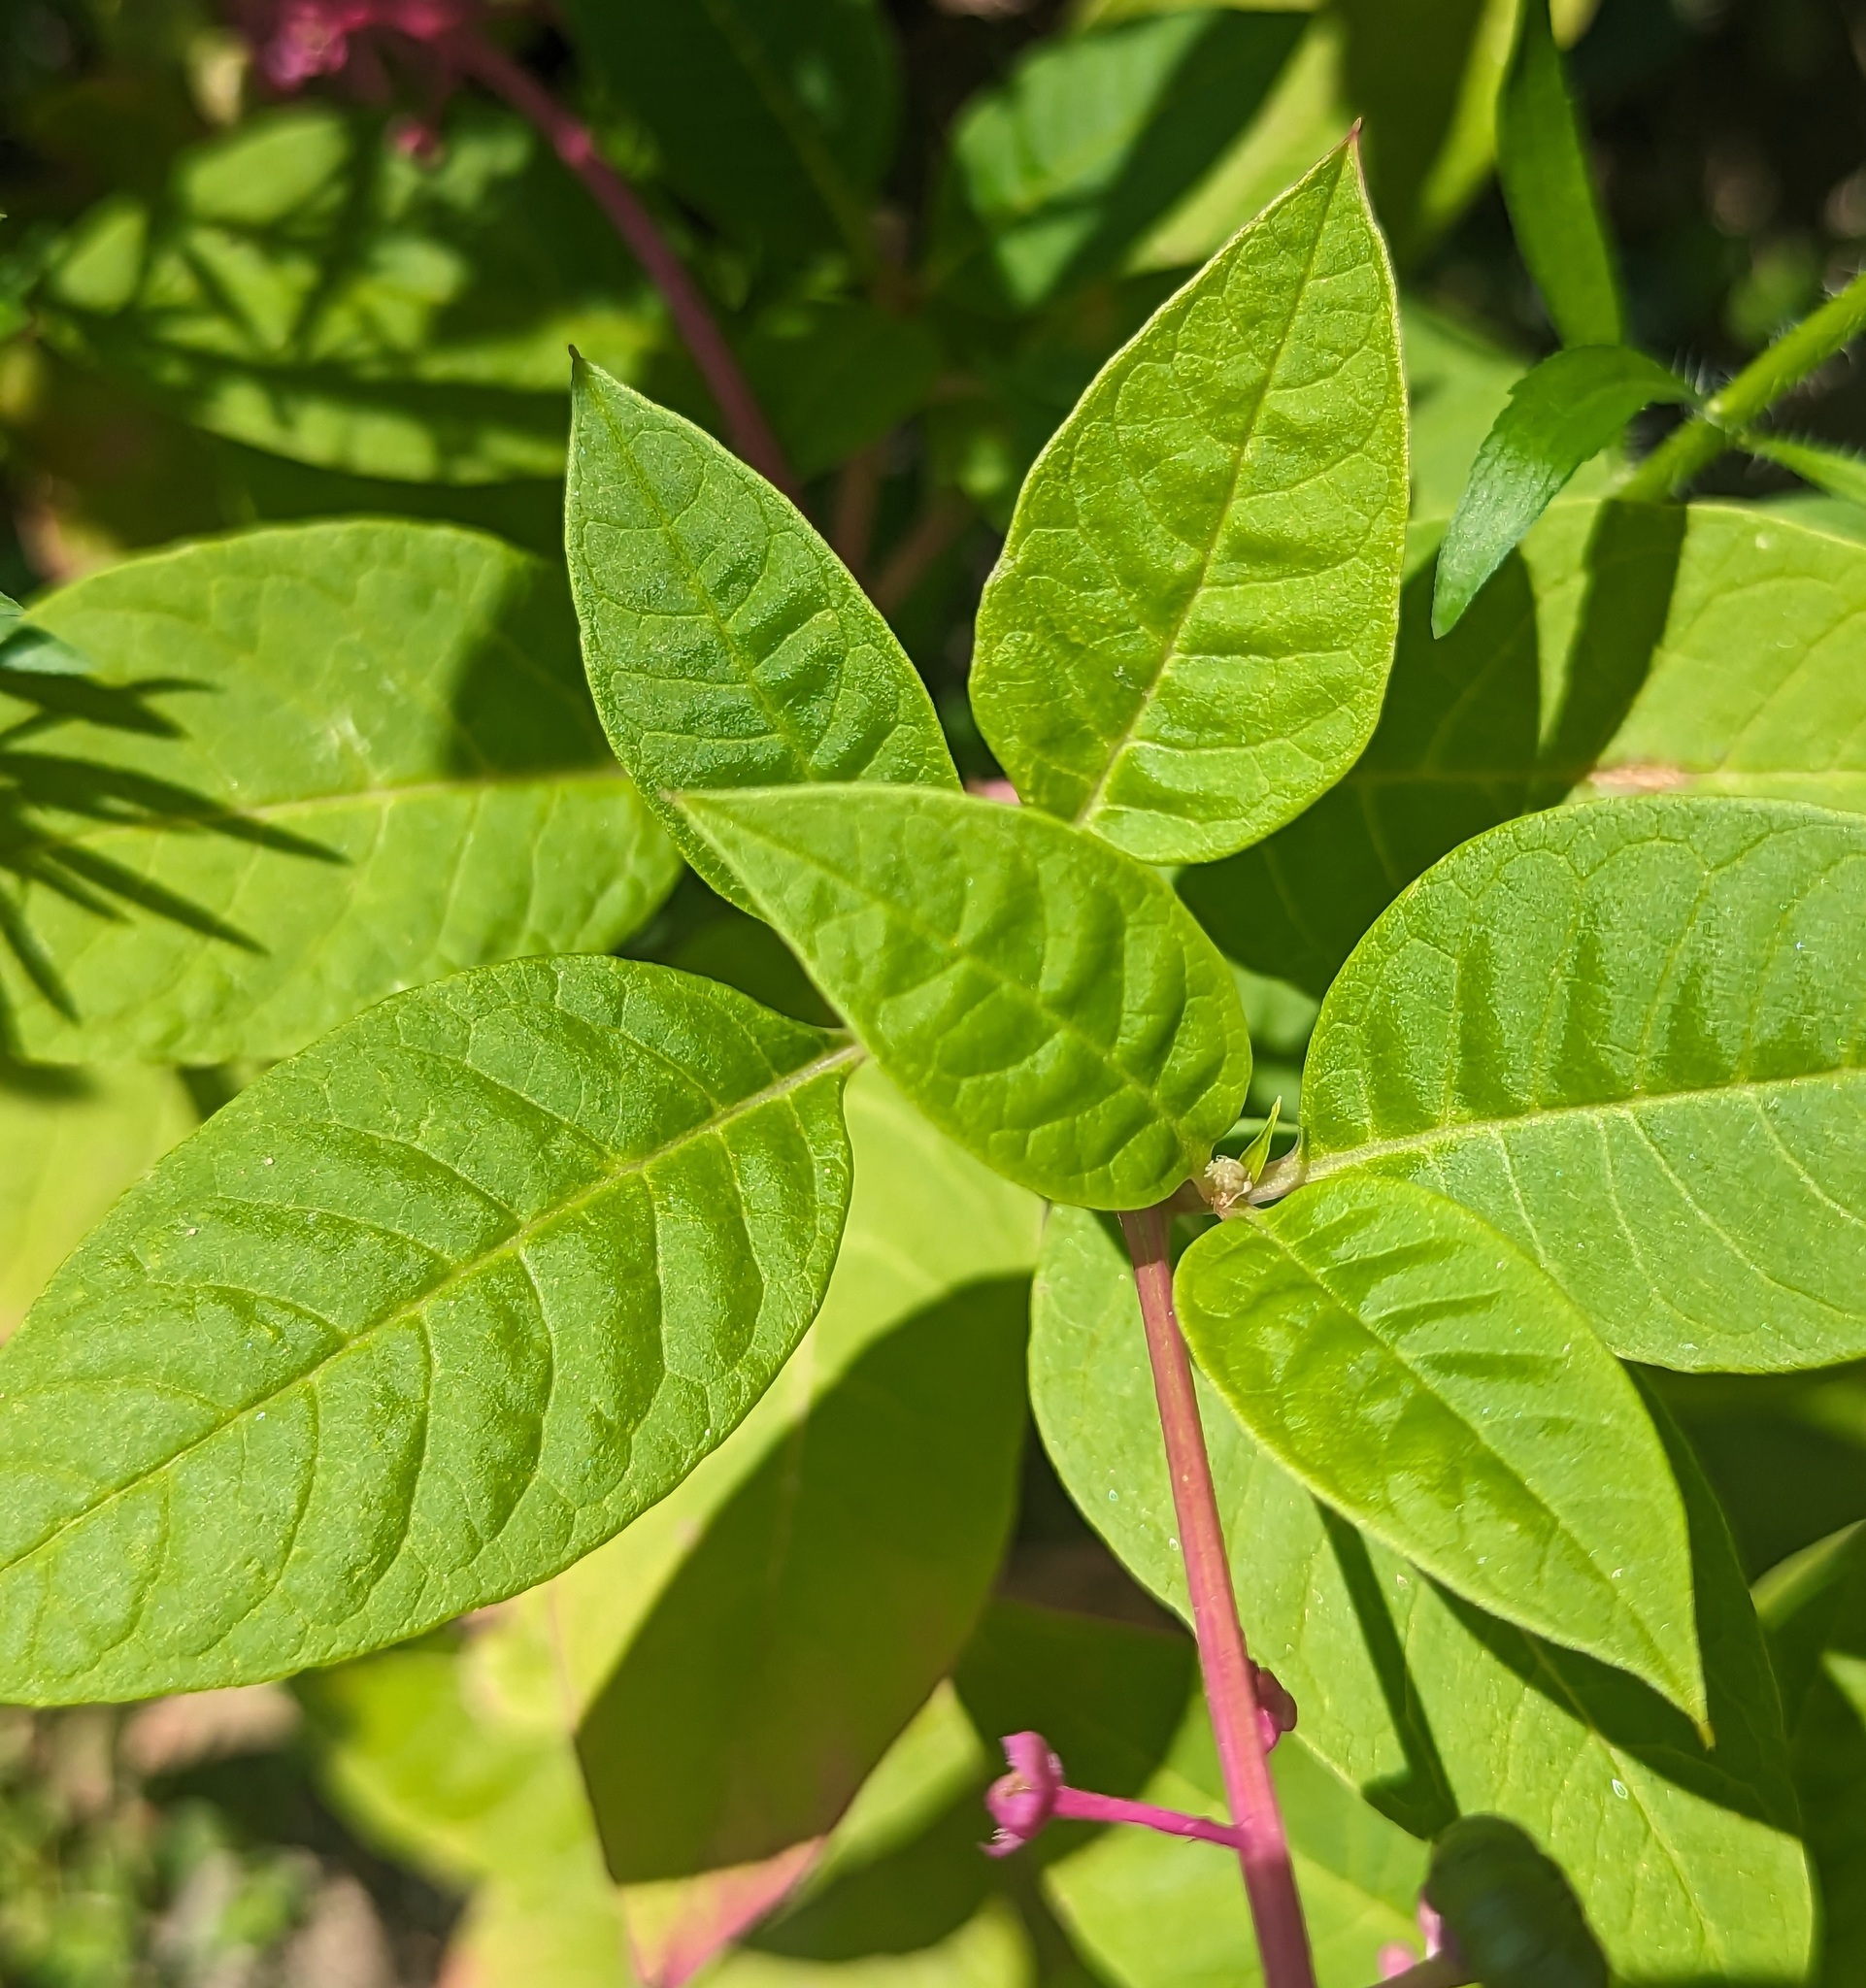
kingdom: Plantae
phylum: Tracheophyta
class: Magnoliopsida
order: Caryophyllales
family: Phytolaccaceae
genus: Phytolacca
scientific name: Phytolacca americana
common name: American pokeweed
